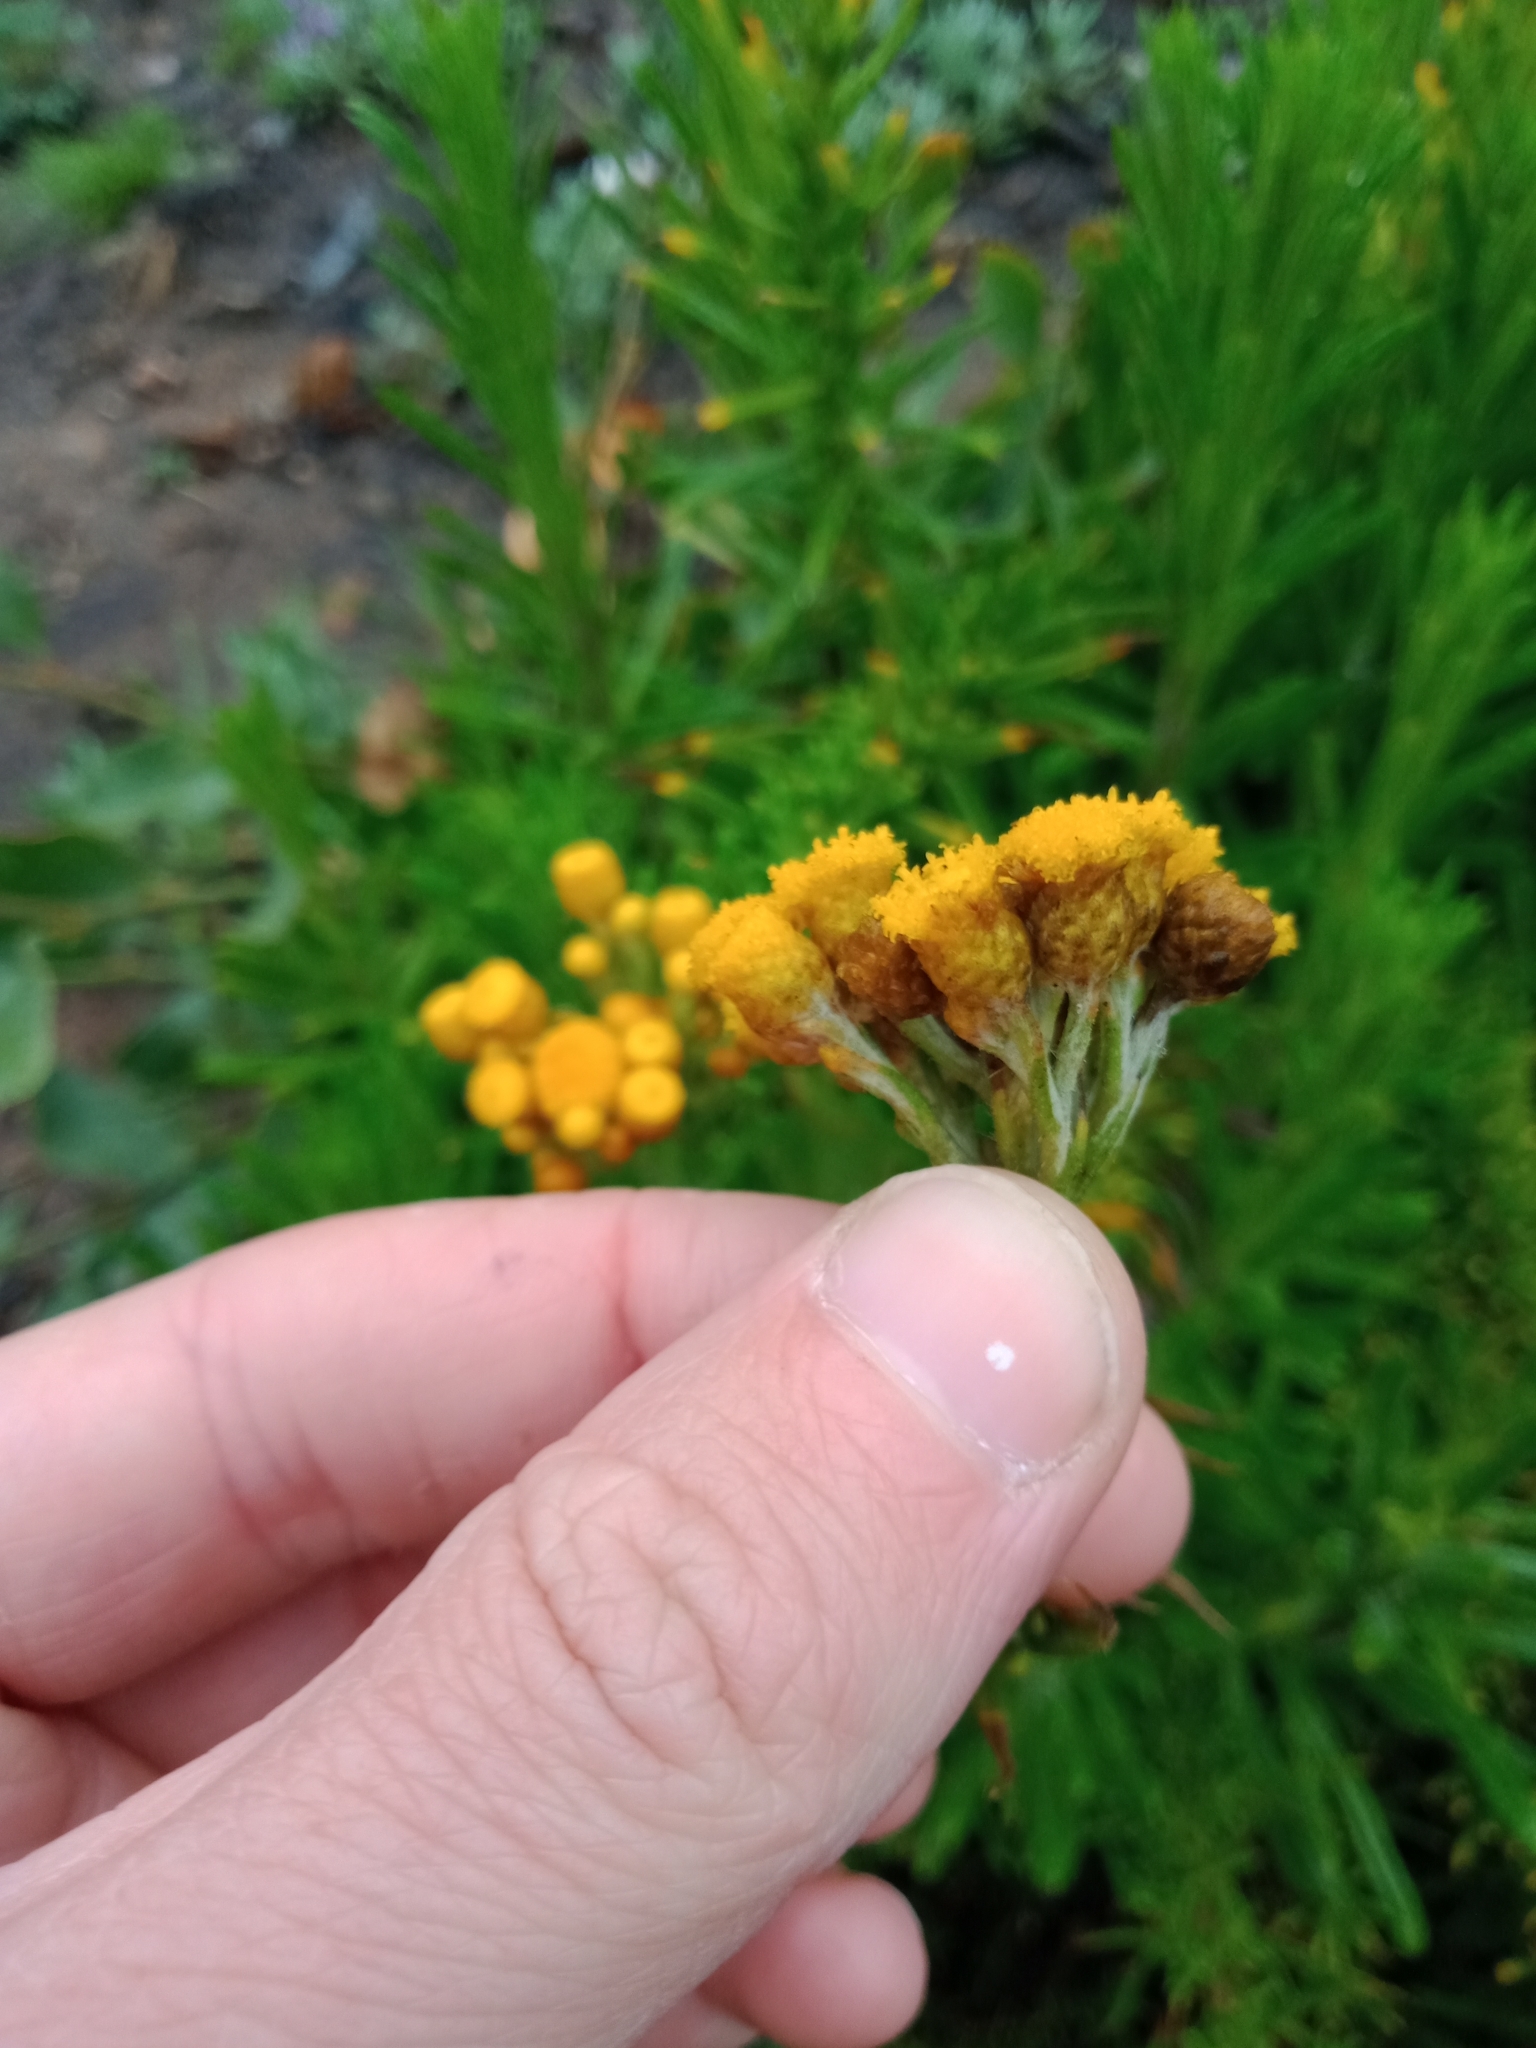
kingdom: Plantae
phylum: Tracheophyta
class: Magnoliopsida
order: Asterales
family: Asteraceae
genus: Chrysocephalum
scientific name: Chrysocephalum semipapposum
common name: Clustered everlasting
